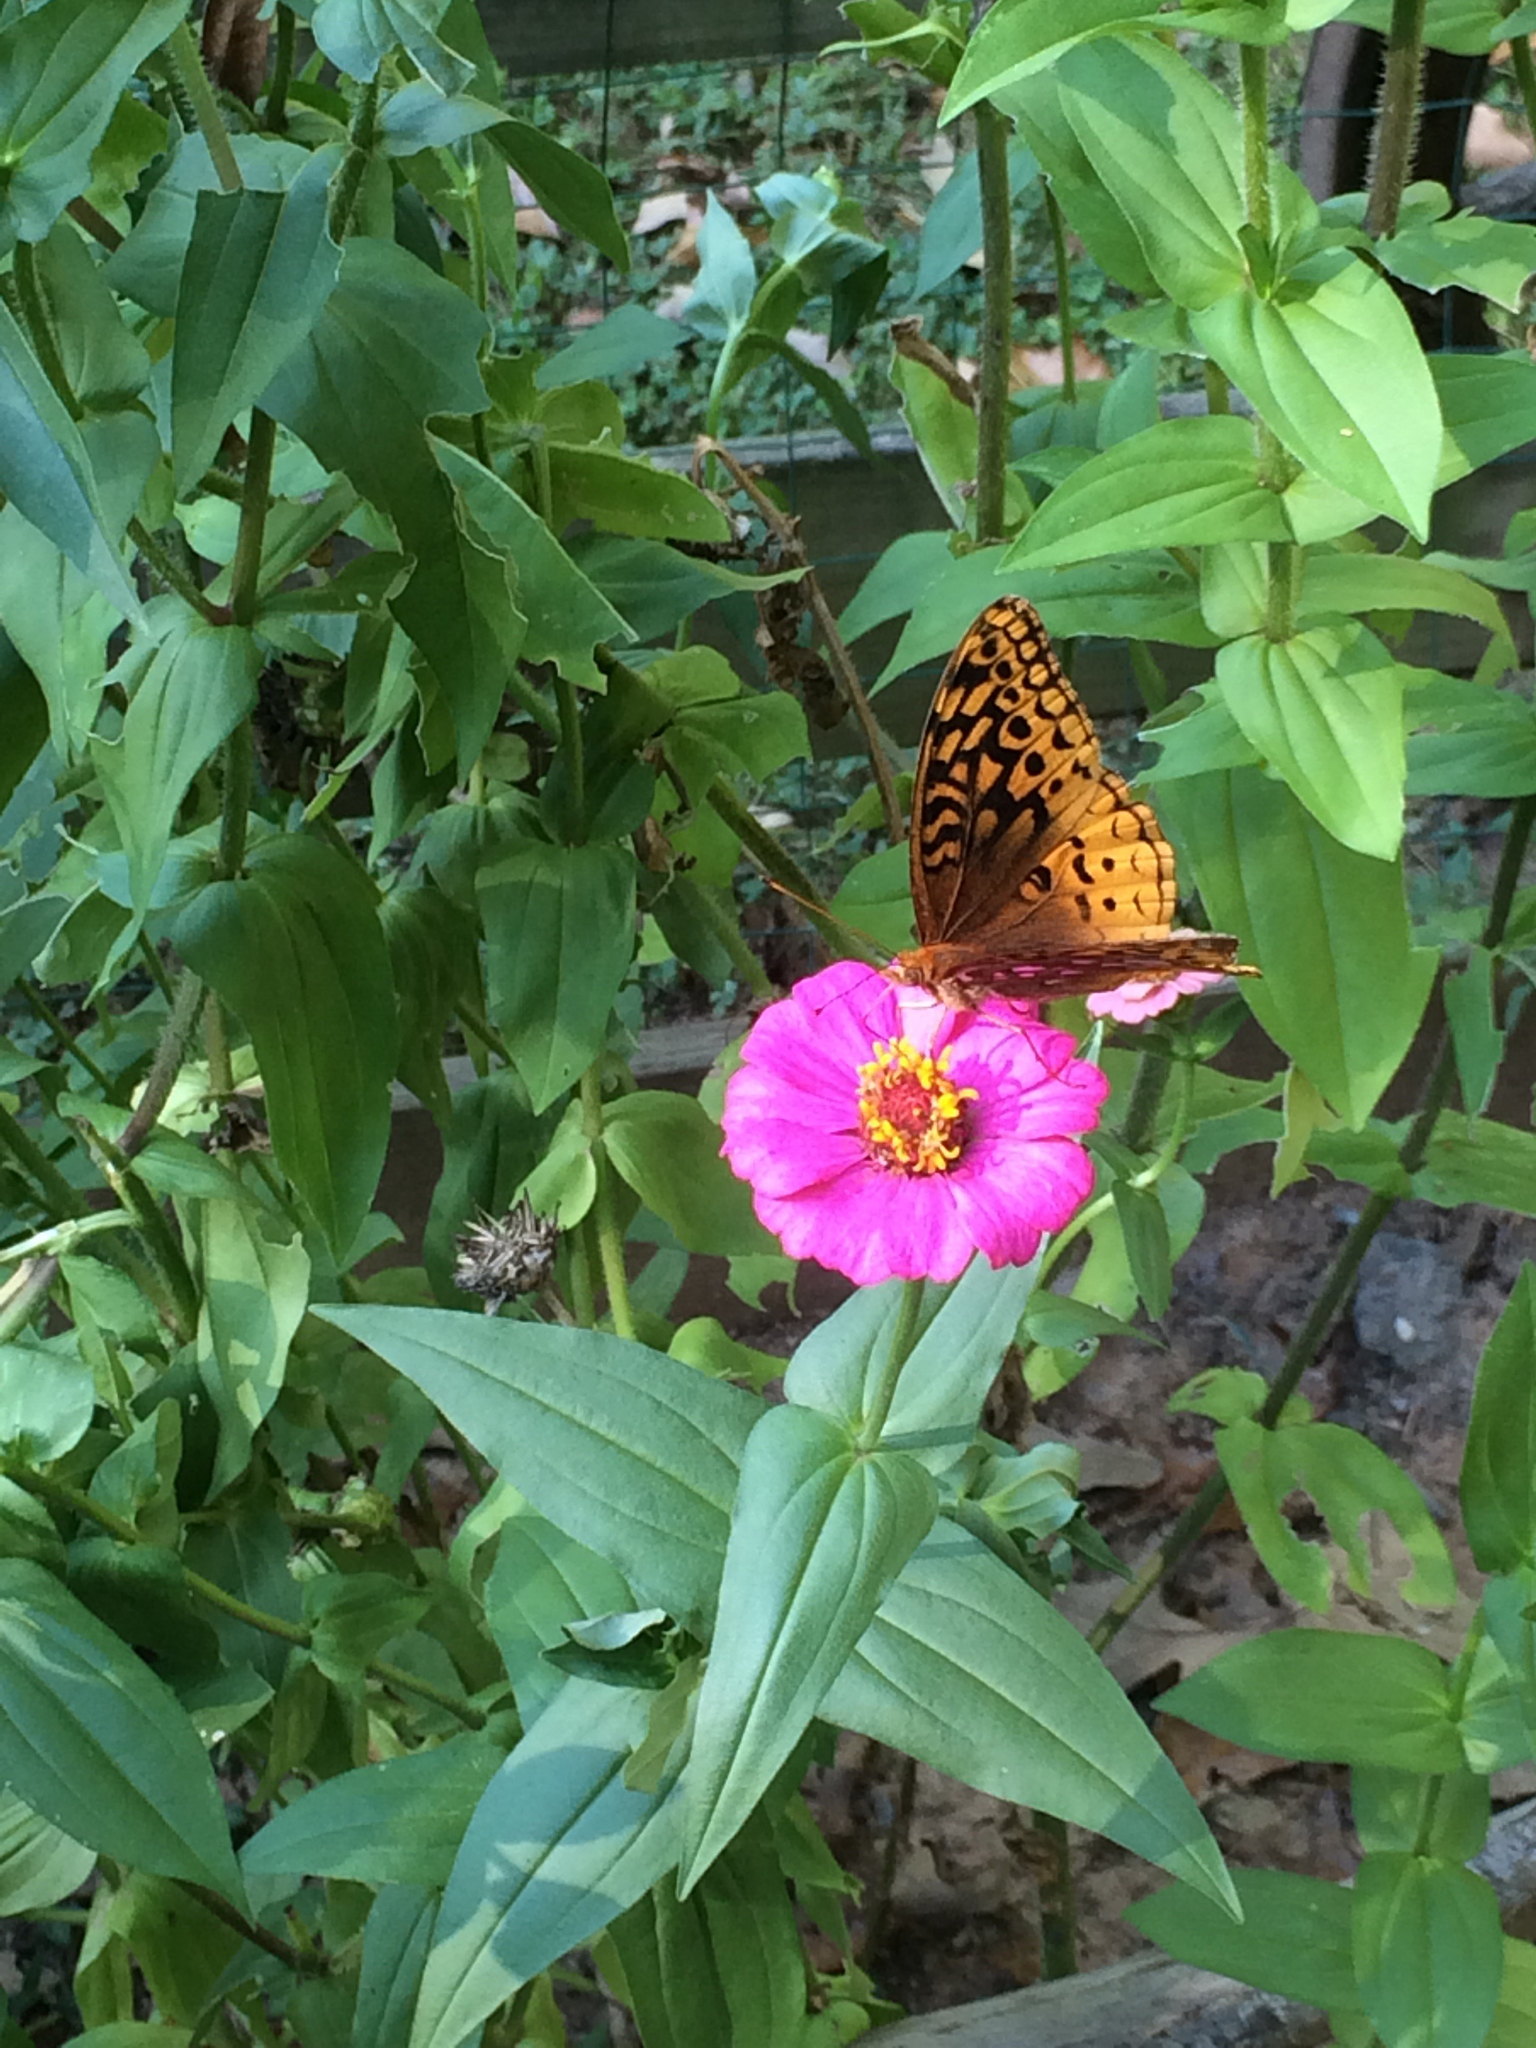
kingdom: Animalia
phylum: Arthropoda
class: Insecta
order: Lepidoptera
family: Nymphalidae
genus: Speyeria
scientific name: Speyeria cybele
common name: Great spangled fritillary
